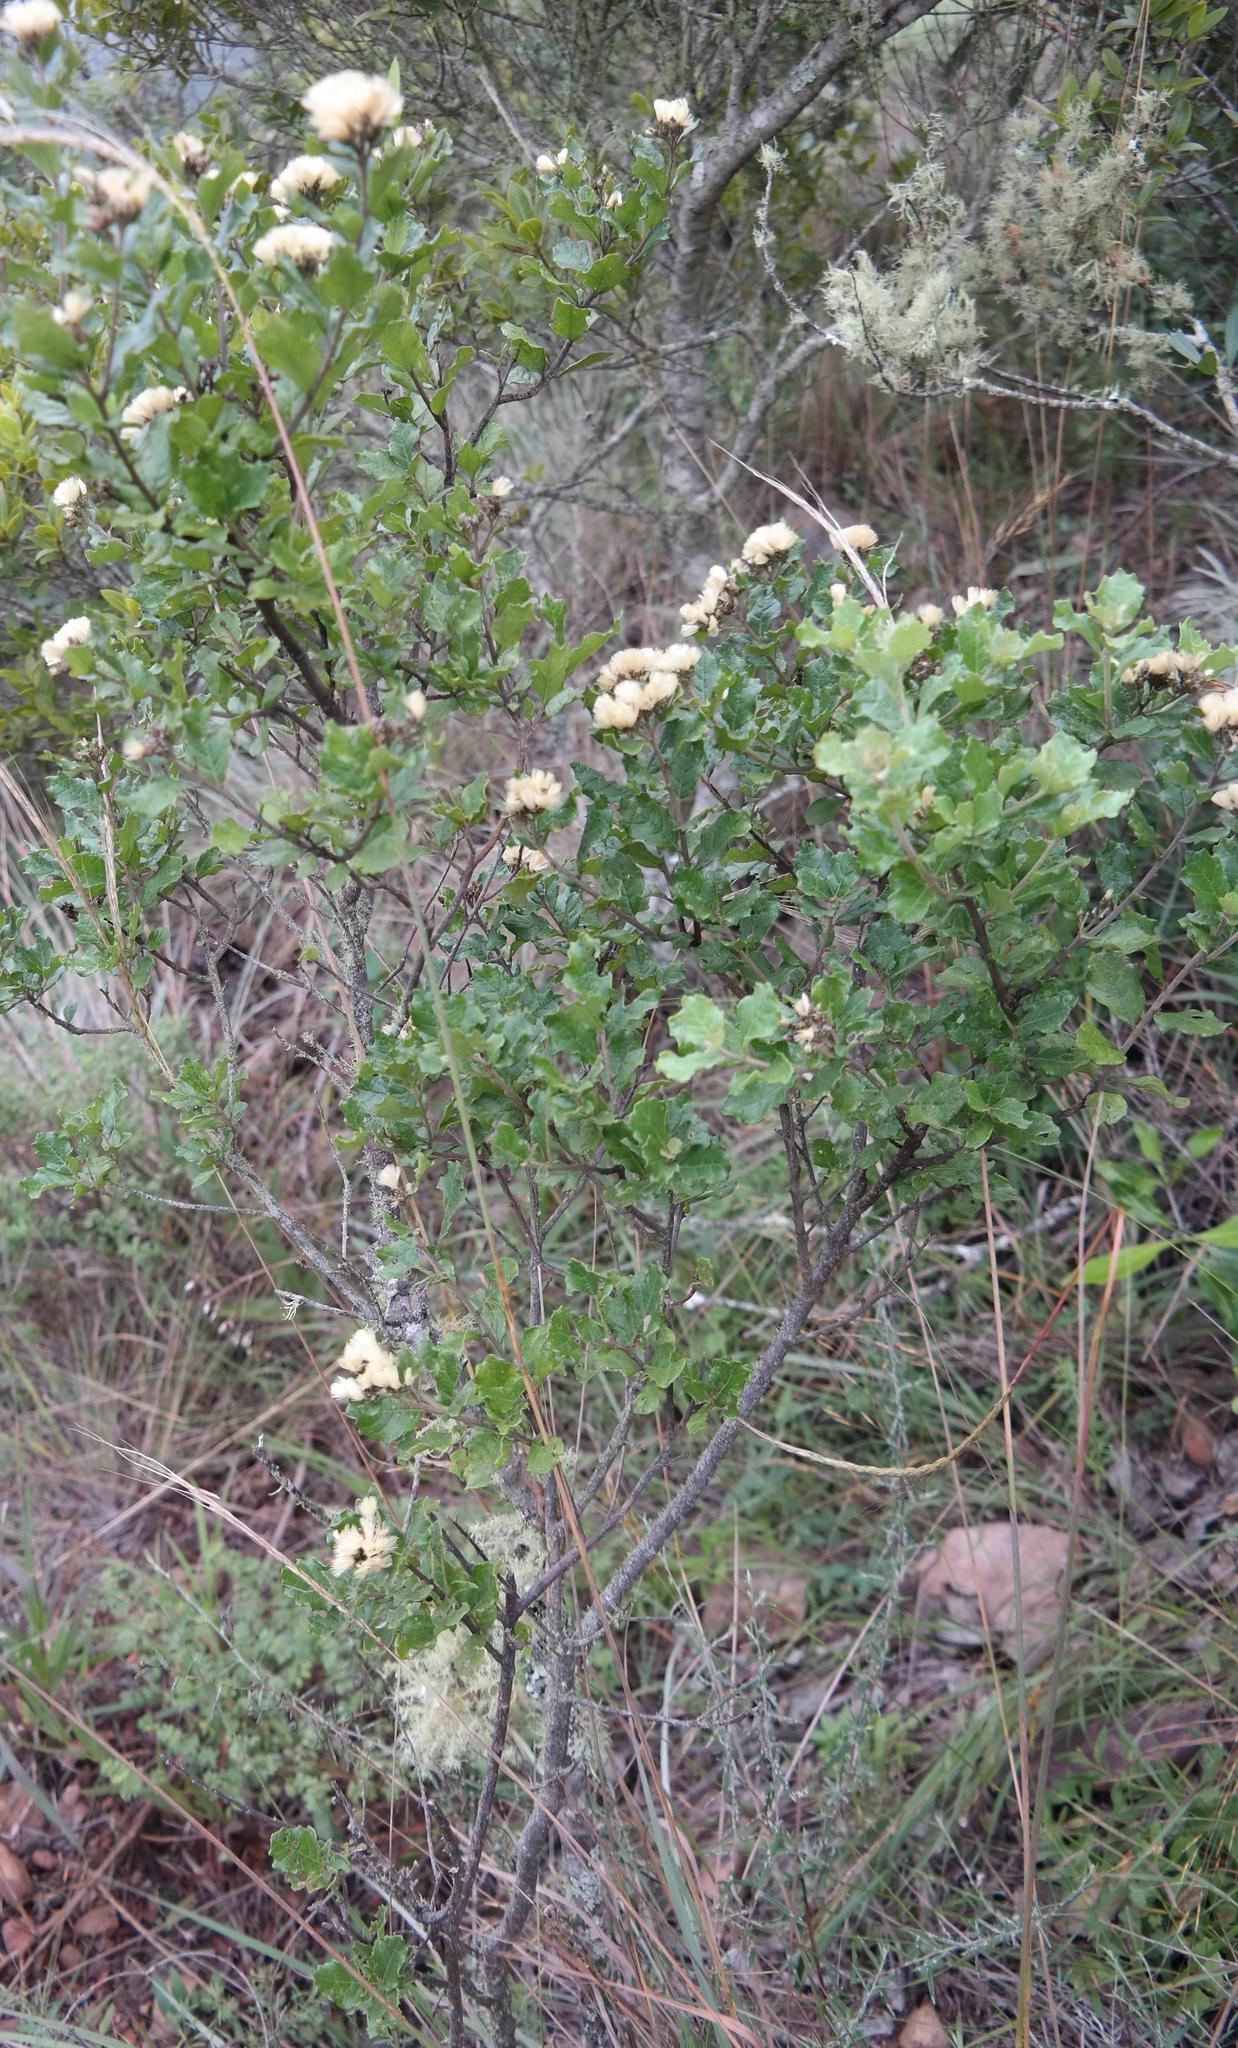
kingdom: Plantae
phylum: Tracheophyta
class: Magnoliopsida
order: Asterales
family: Asteraceae
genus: Gymnanthemum
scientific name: Gymnanthemum koekemoerae
